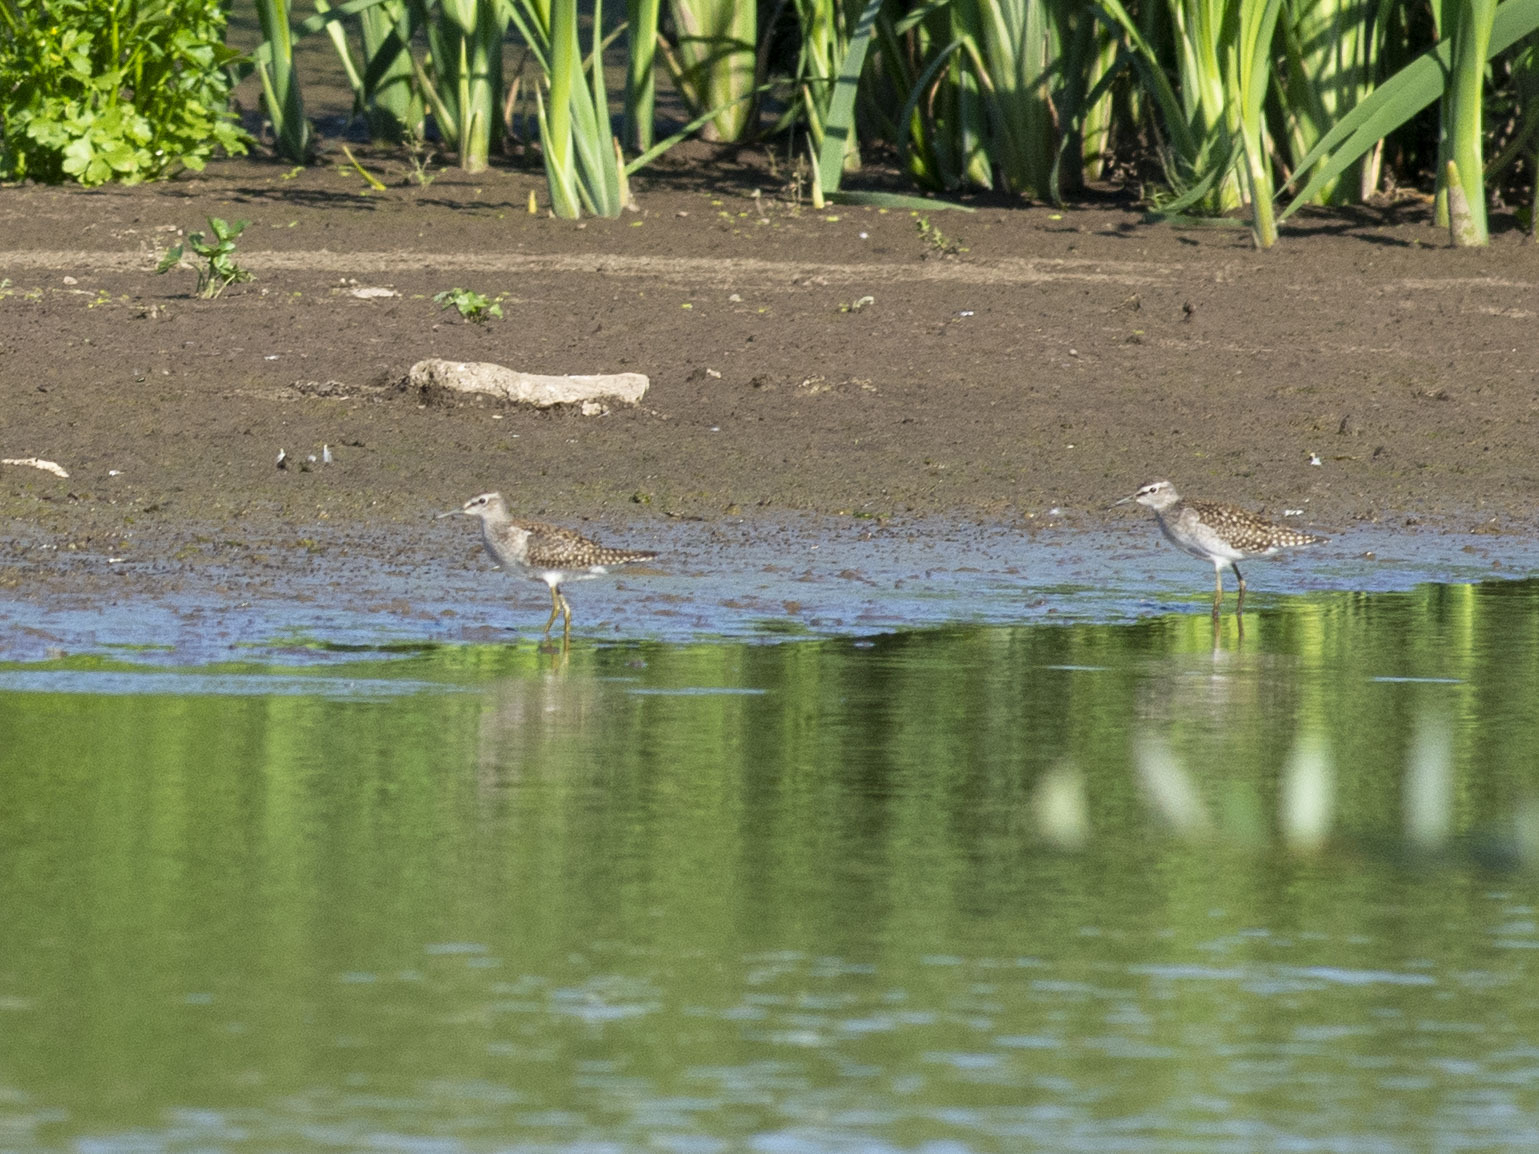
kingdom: Animalia
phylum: Chordata
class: Aves
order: Charadriiformes
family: Scolopacidae
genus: Tringa
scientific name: Tringa glareola
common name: Wood sandpiper
